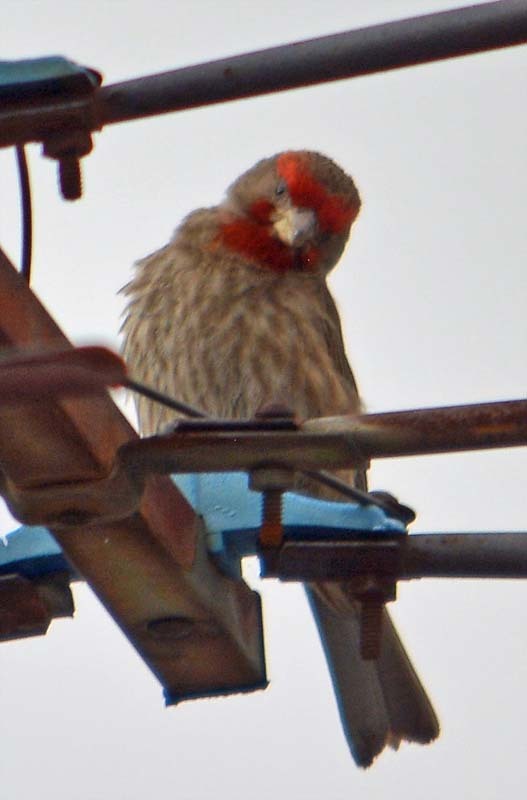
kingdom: Animalia
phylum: Chordata
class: Aves
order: Passeriformes
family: Fringillidae
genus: Haemorhous
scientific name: Haemorhous mexicanus
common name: House finch
